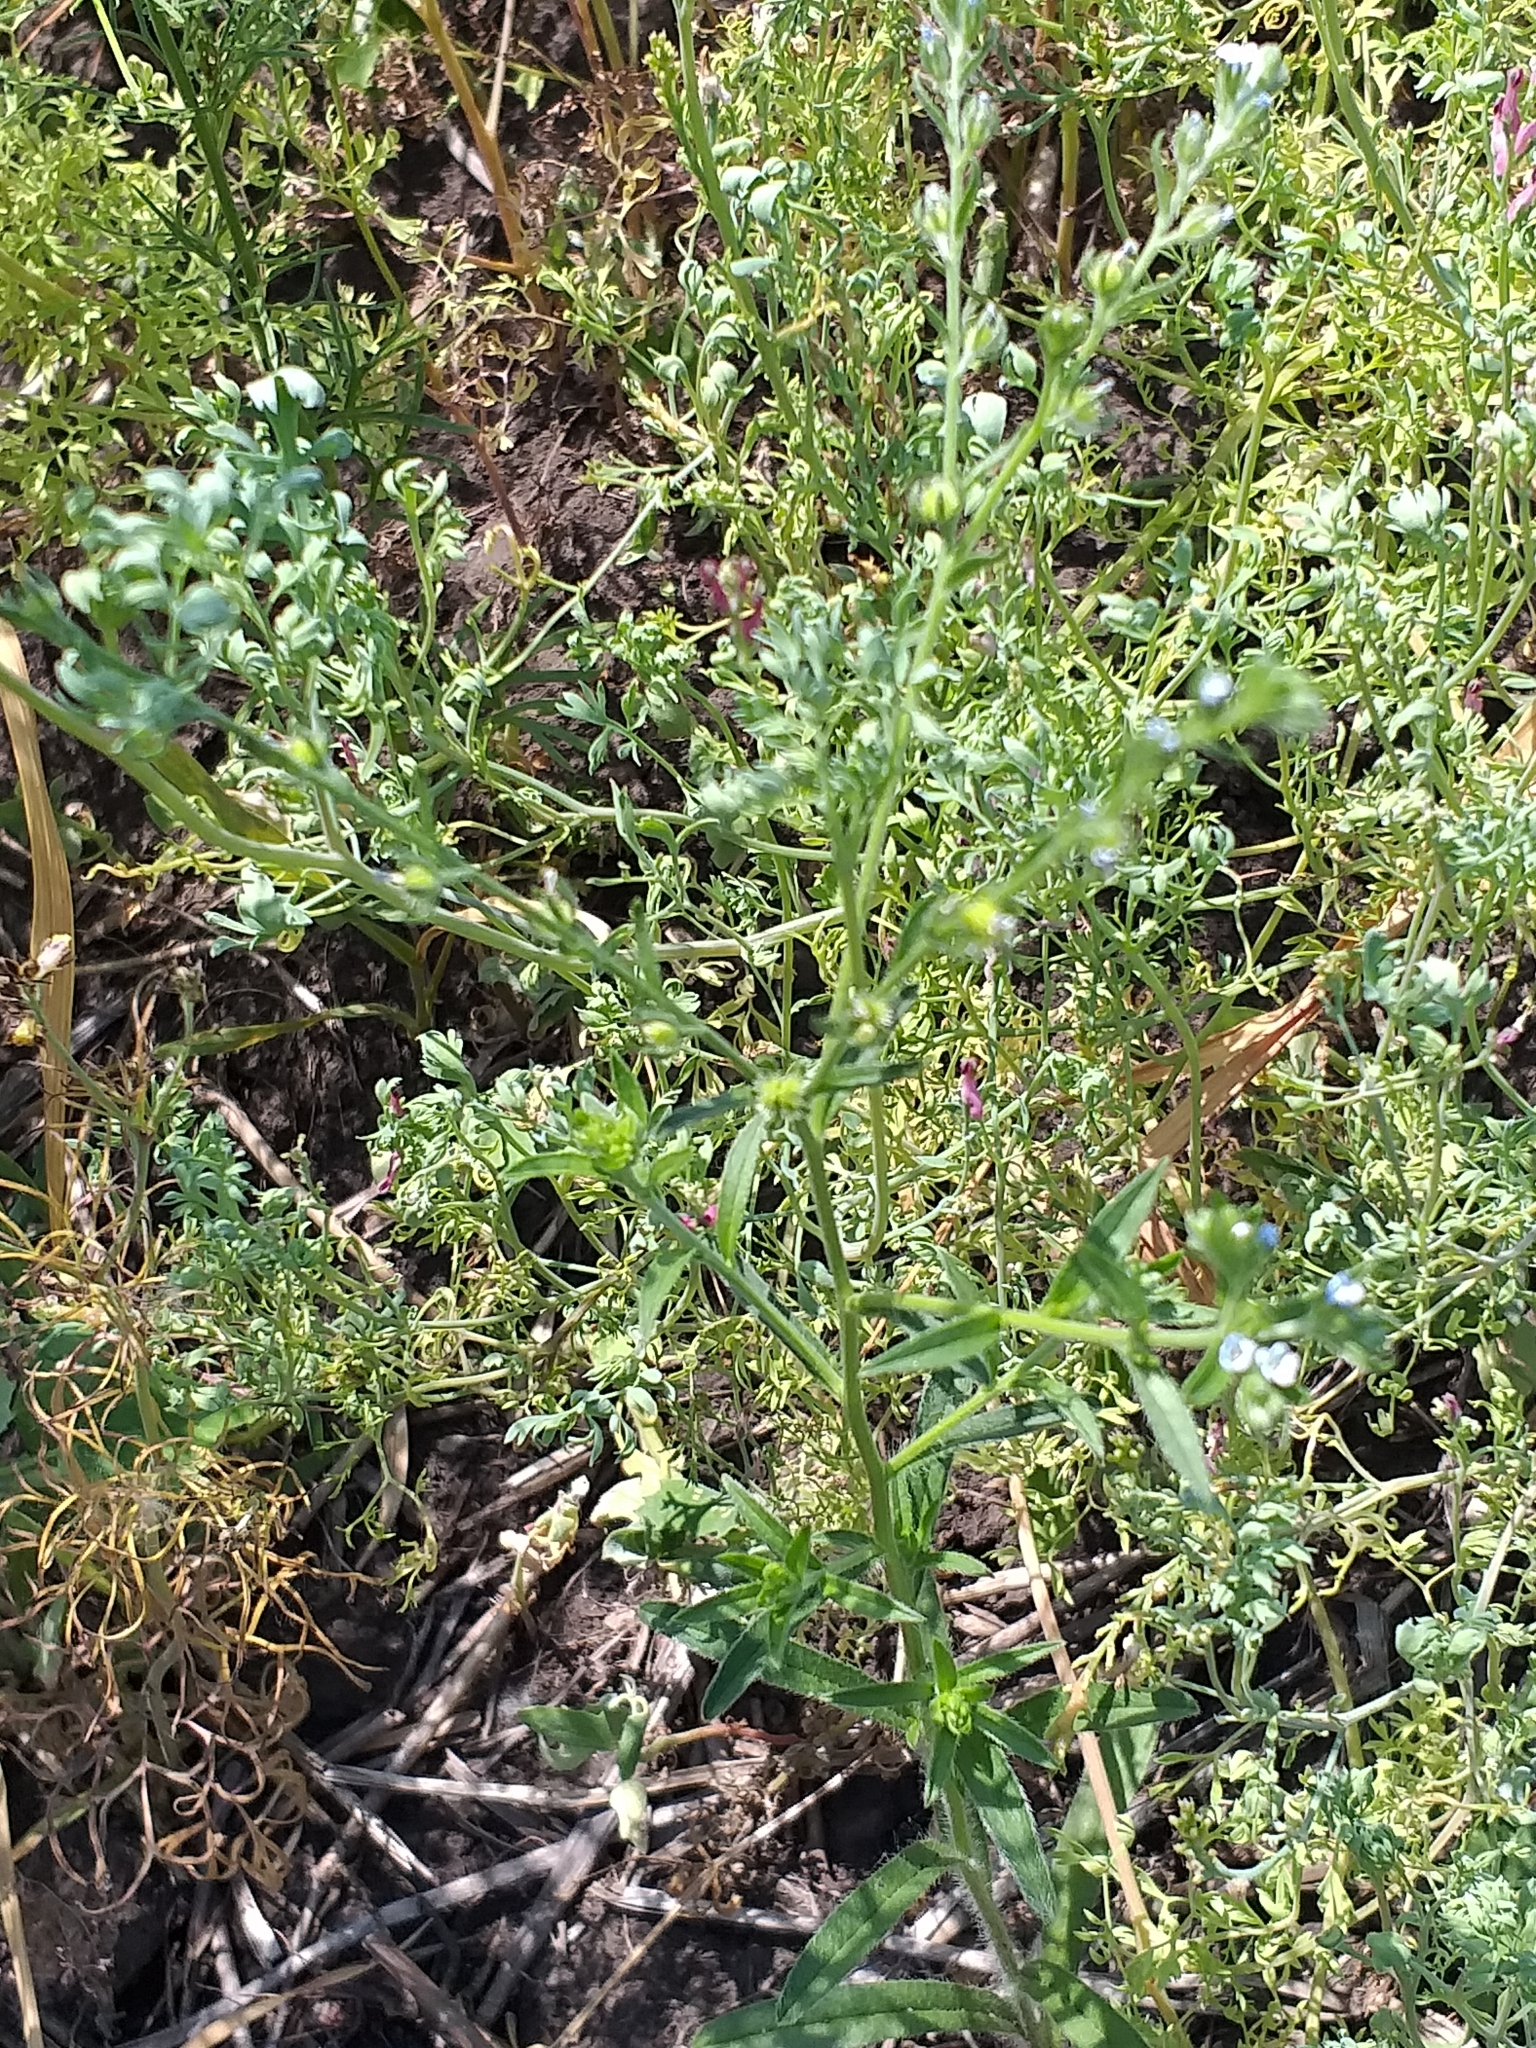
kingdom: Plantae
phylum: Tracheophyta
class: Magnoliopsida
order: Boraginales
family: Boraginaceae
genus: Lappula
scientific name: Lappula squarrosa
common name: European stickseed
